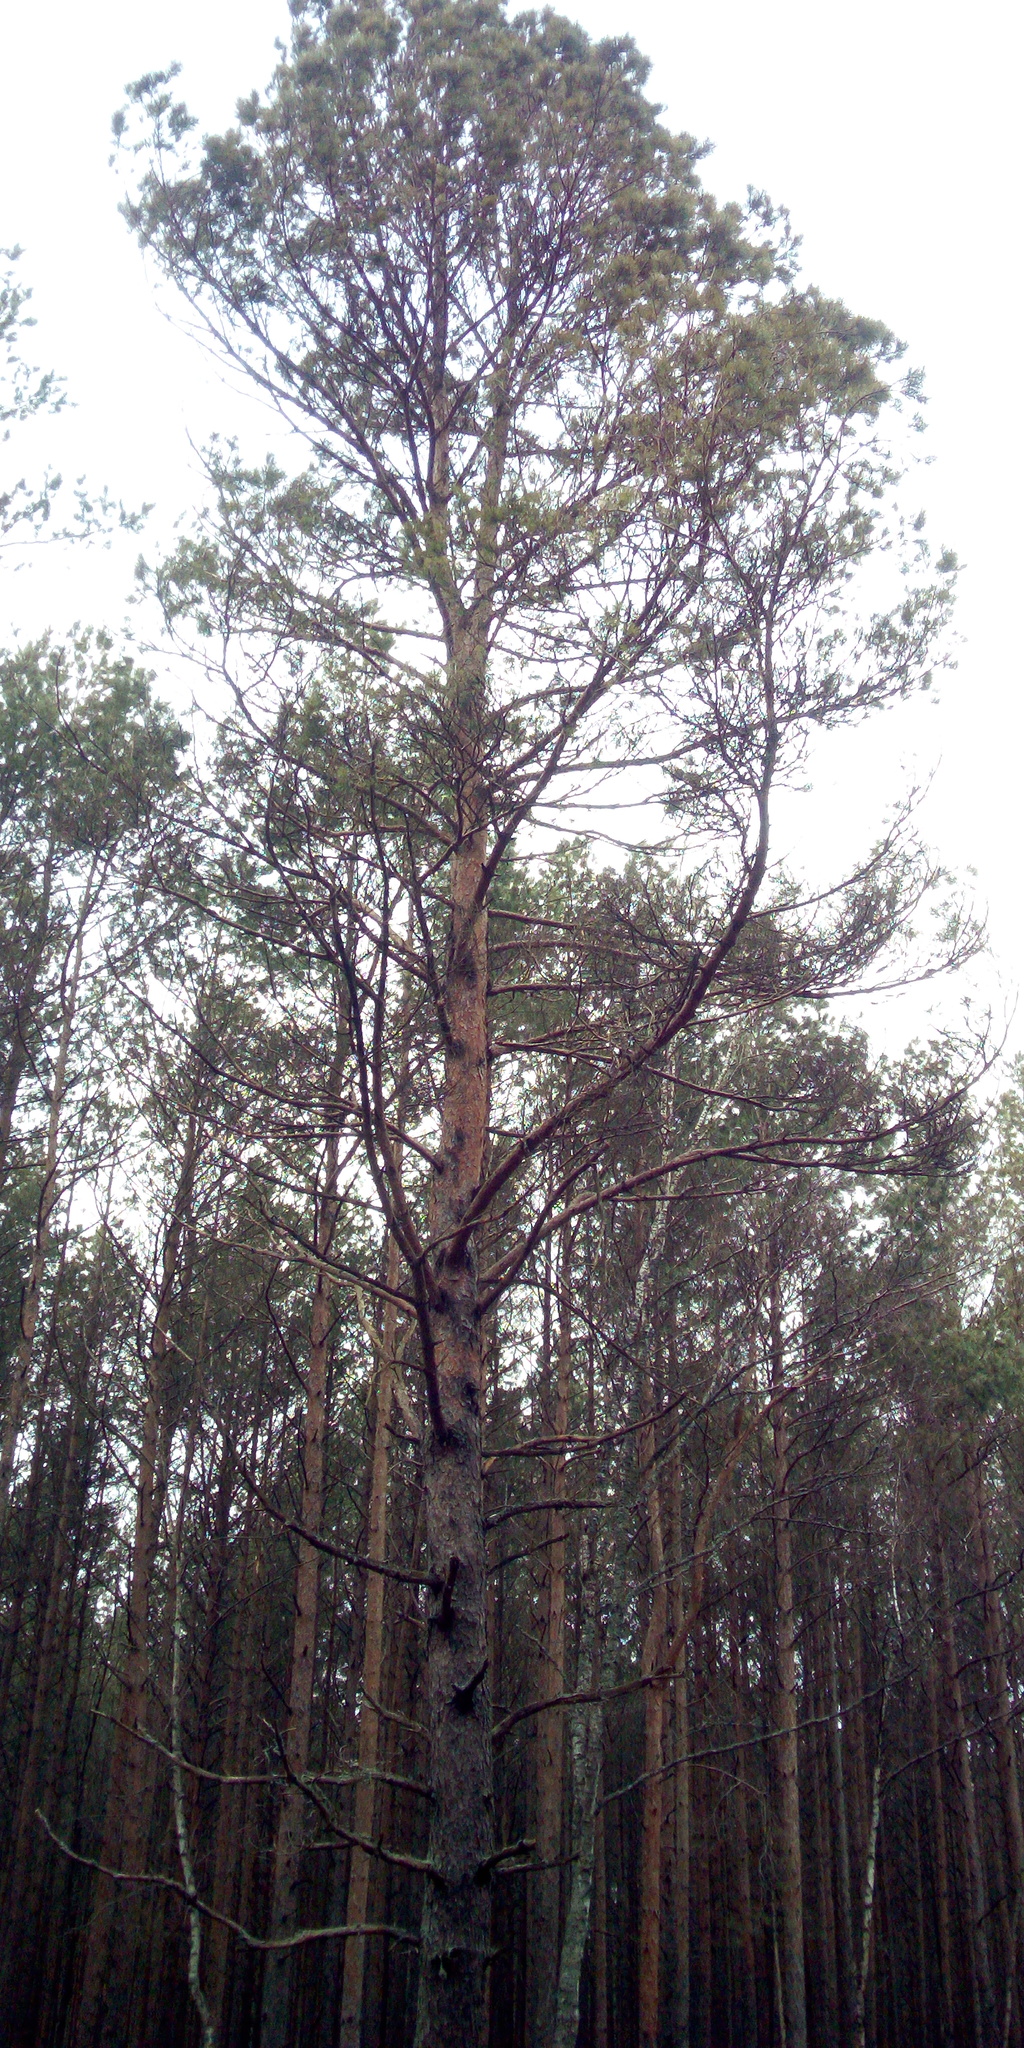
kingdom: Plantae
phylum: Tracheophyta
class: Pinopsida
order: Pinales
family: Pinaceae
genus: Pinus
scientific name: Pinus sylvestris
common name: Scots pine
